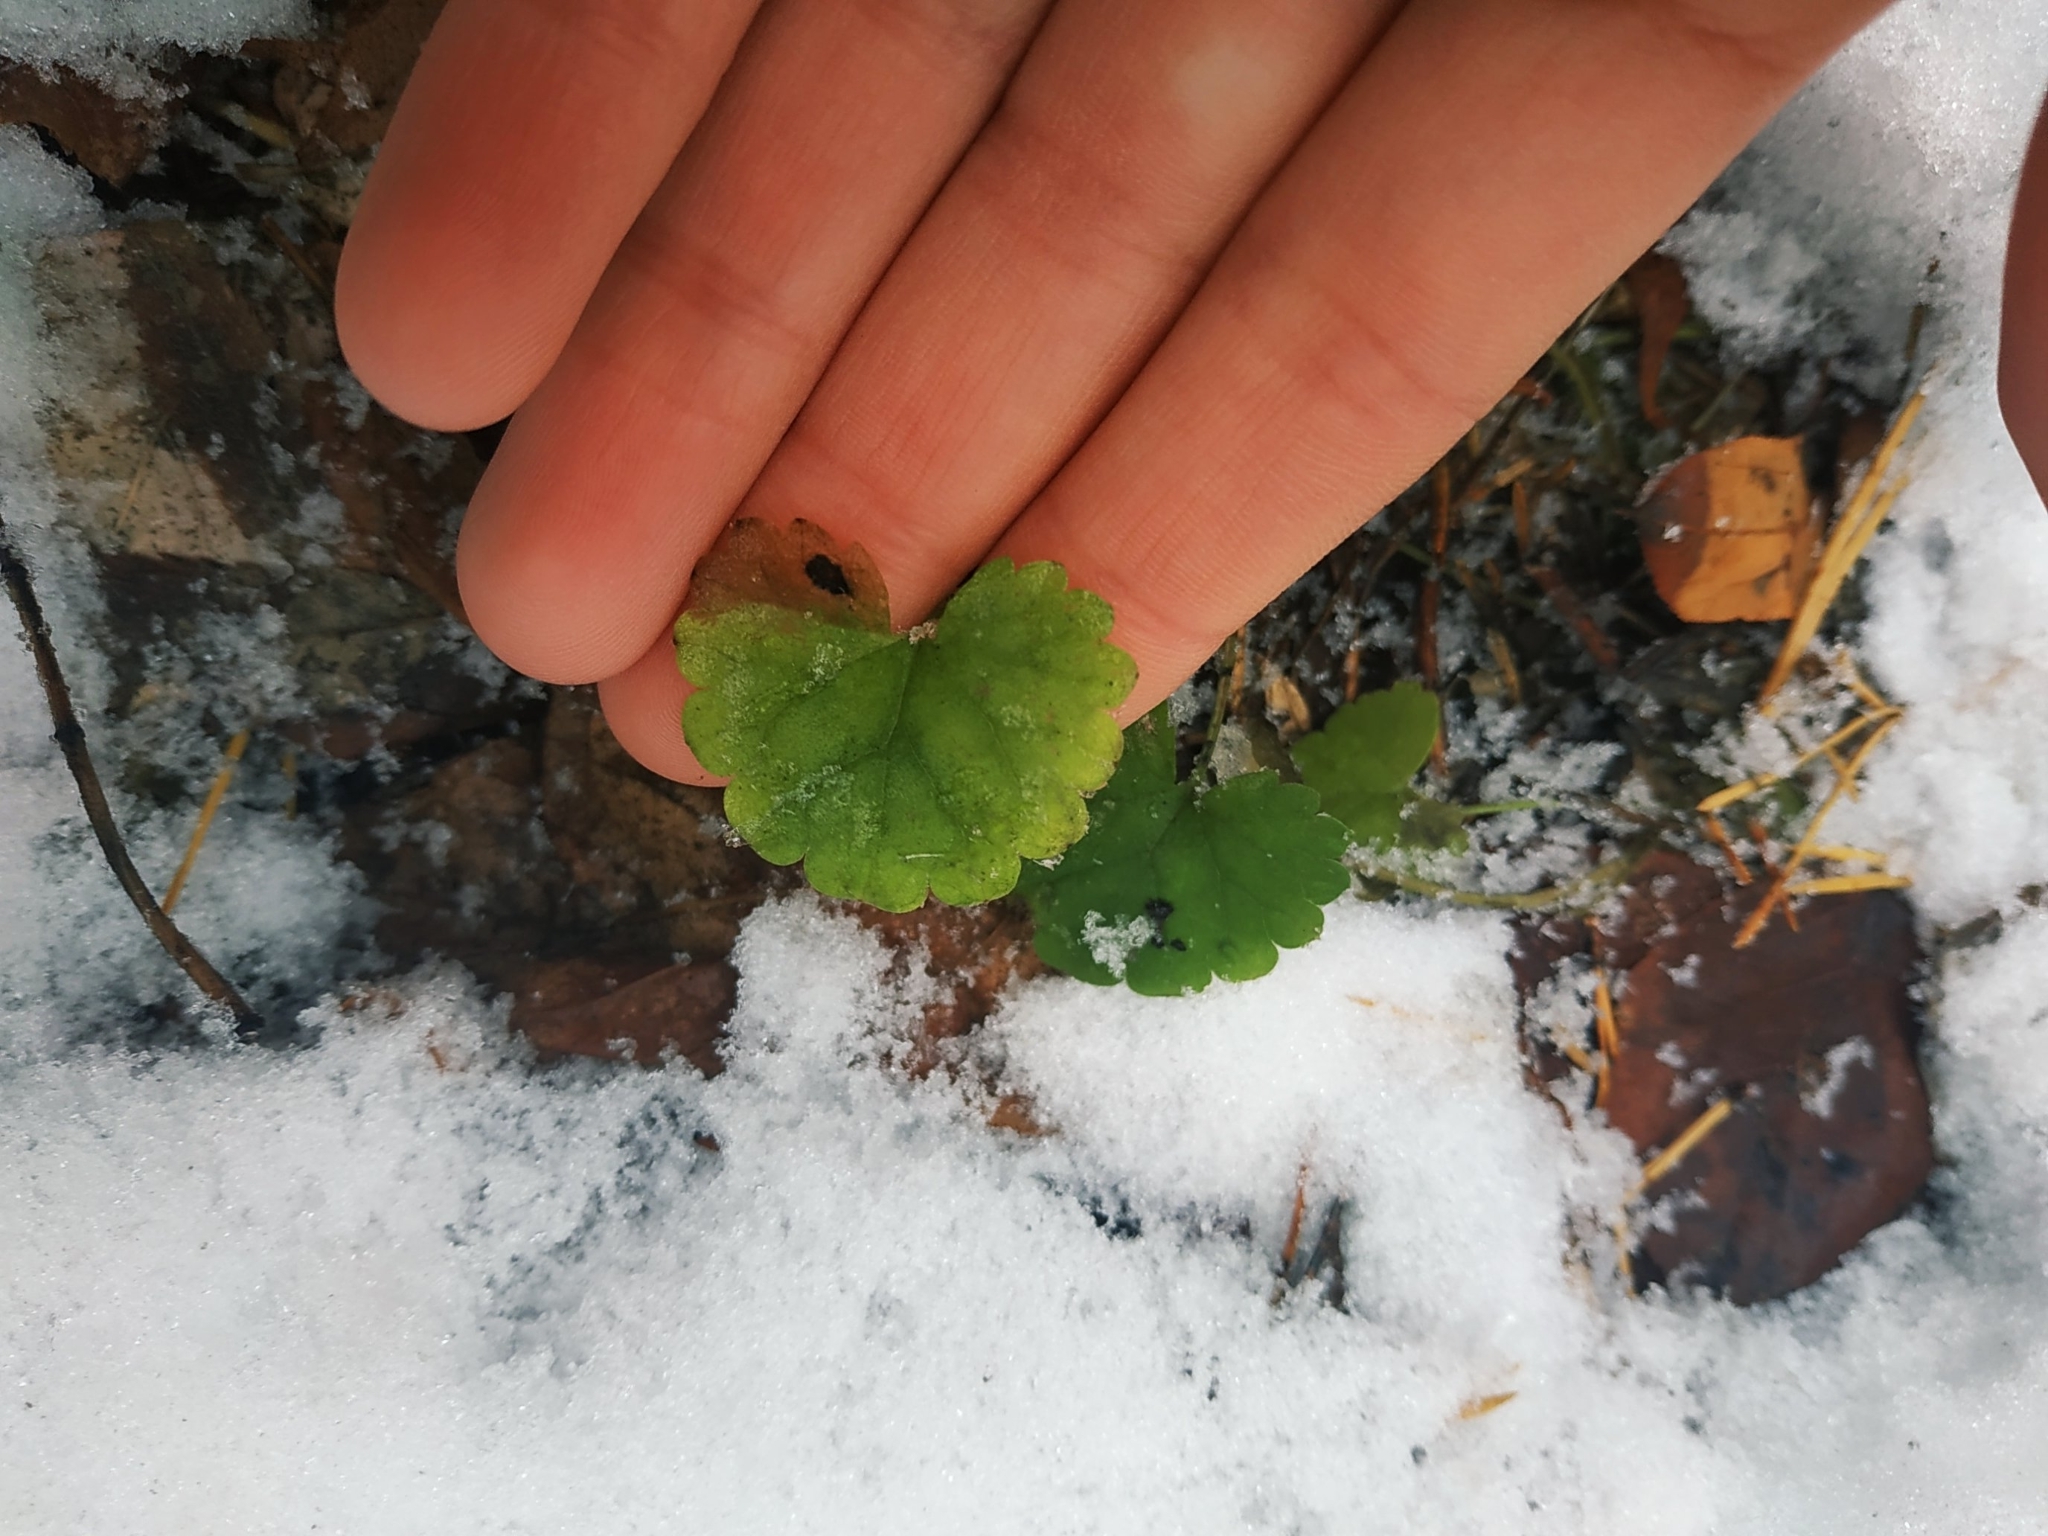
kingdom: Plantae
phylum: Tracheophyta
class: Magnoliopsida
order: Lamiales
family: Lamiaceae
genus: Glechoma
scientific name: Glechoma hederacea
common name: Ground ivy
